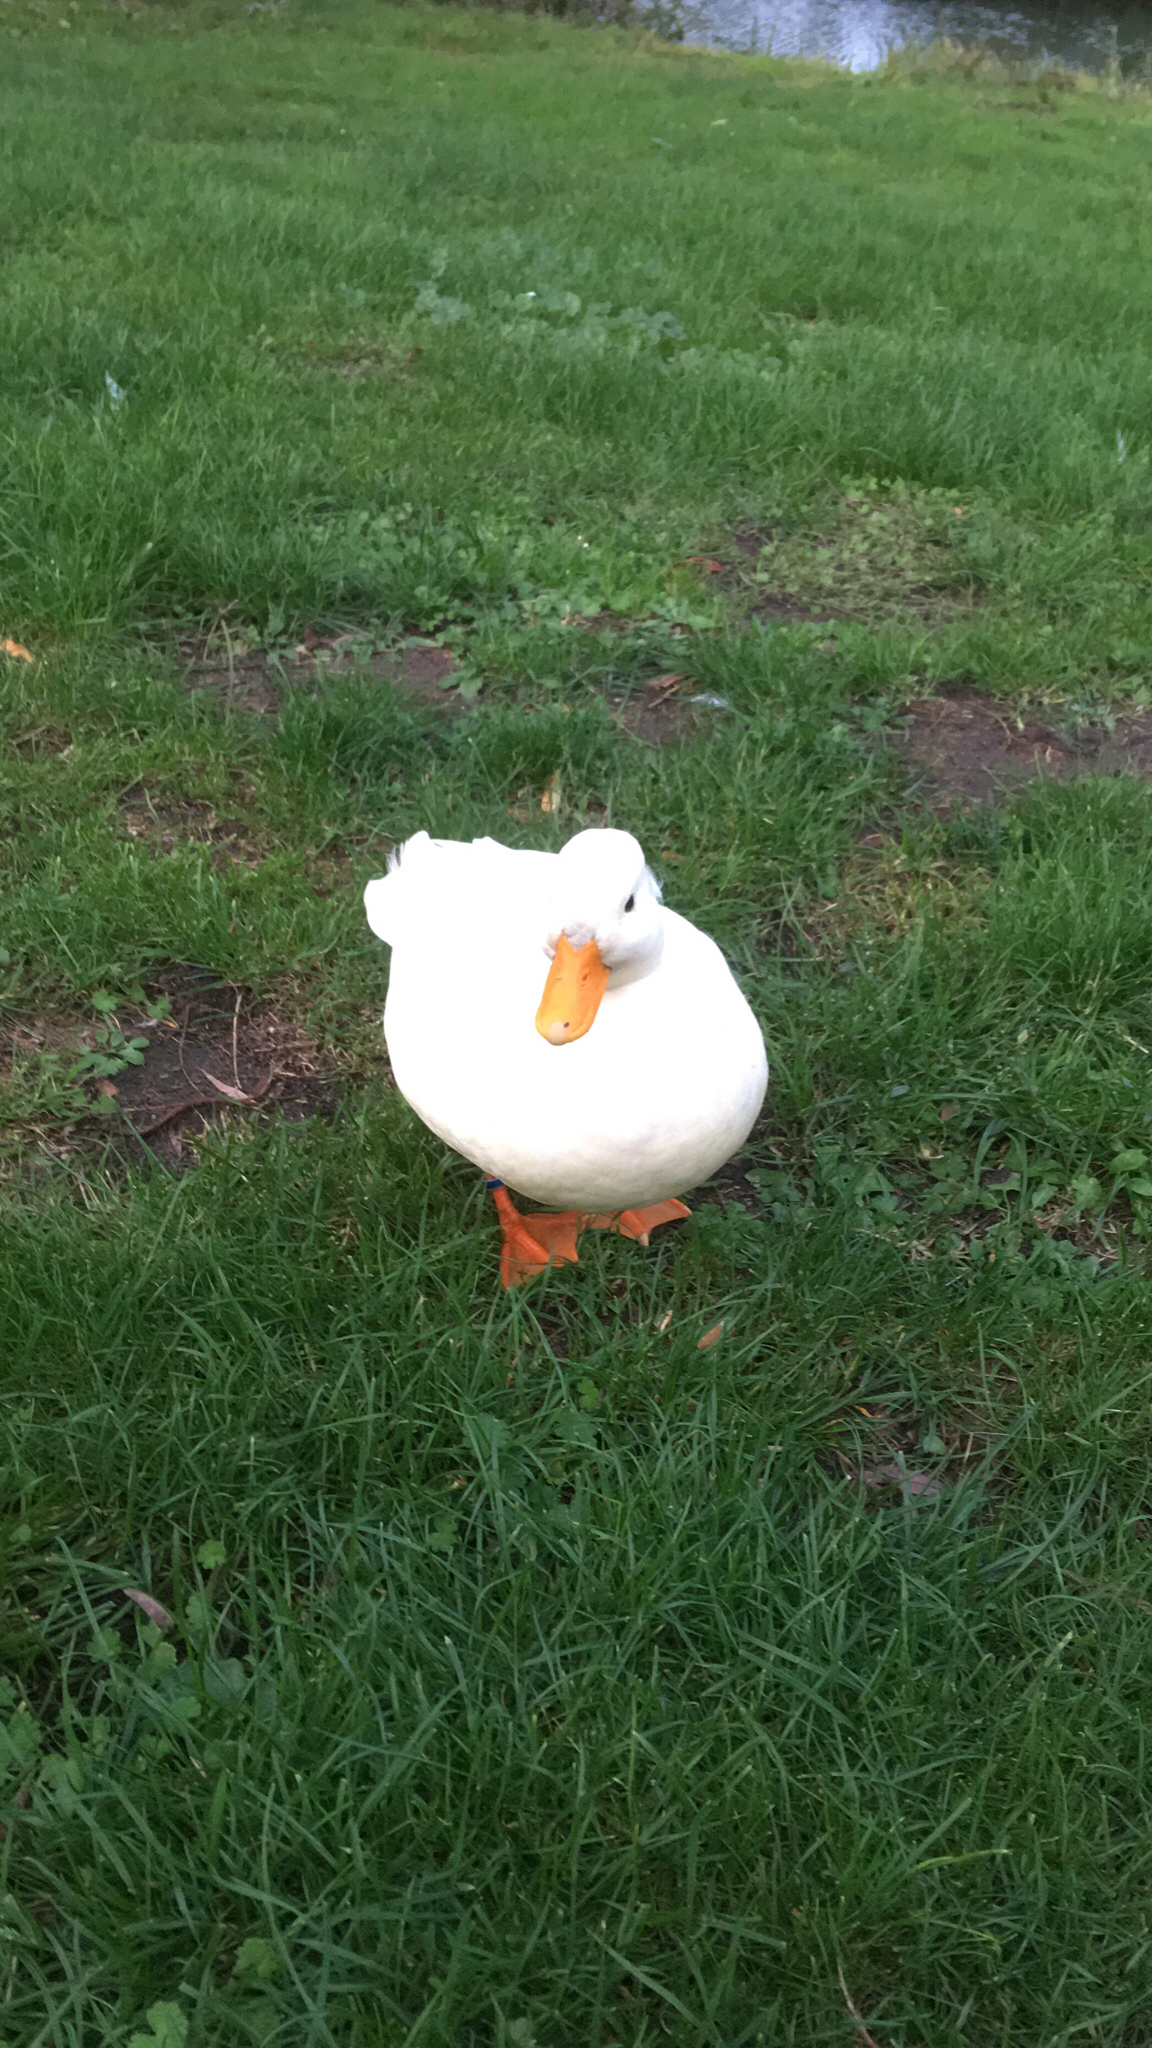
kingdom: Animalia
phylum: Chordata
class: Aves
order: Anseriformes
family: Anatidae
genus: Anas
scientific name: Anas platyrhynchos
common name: Mallard
